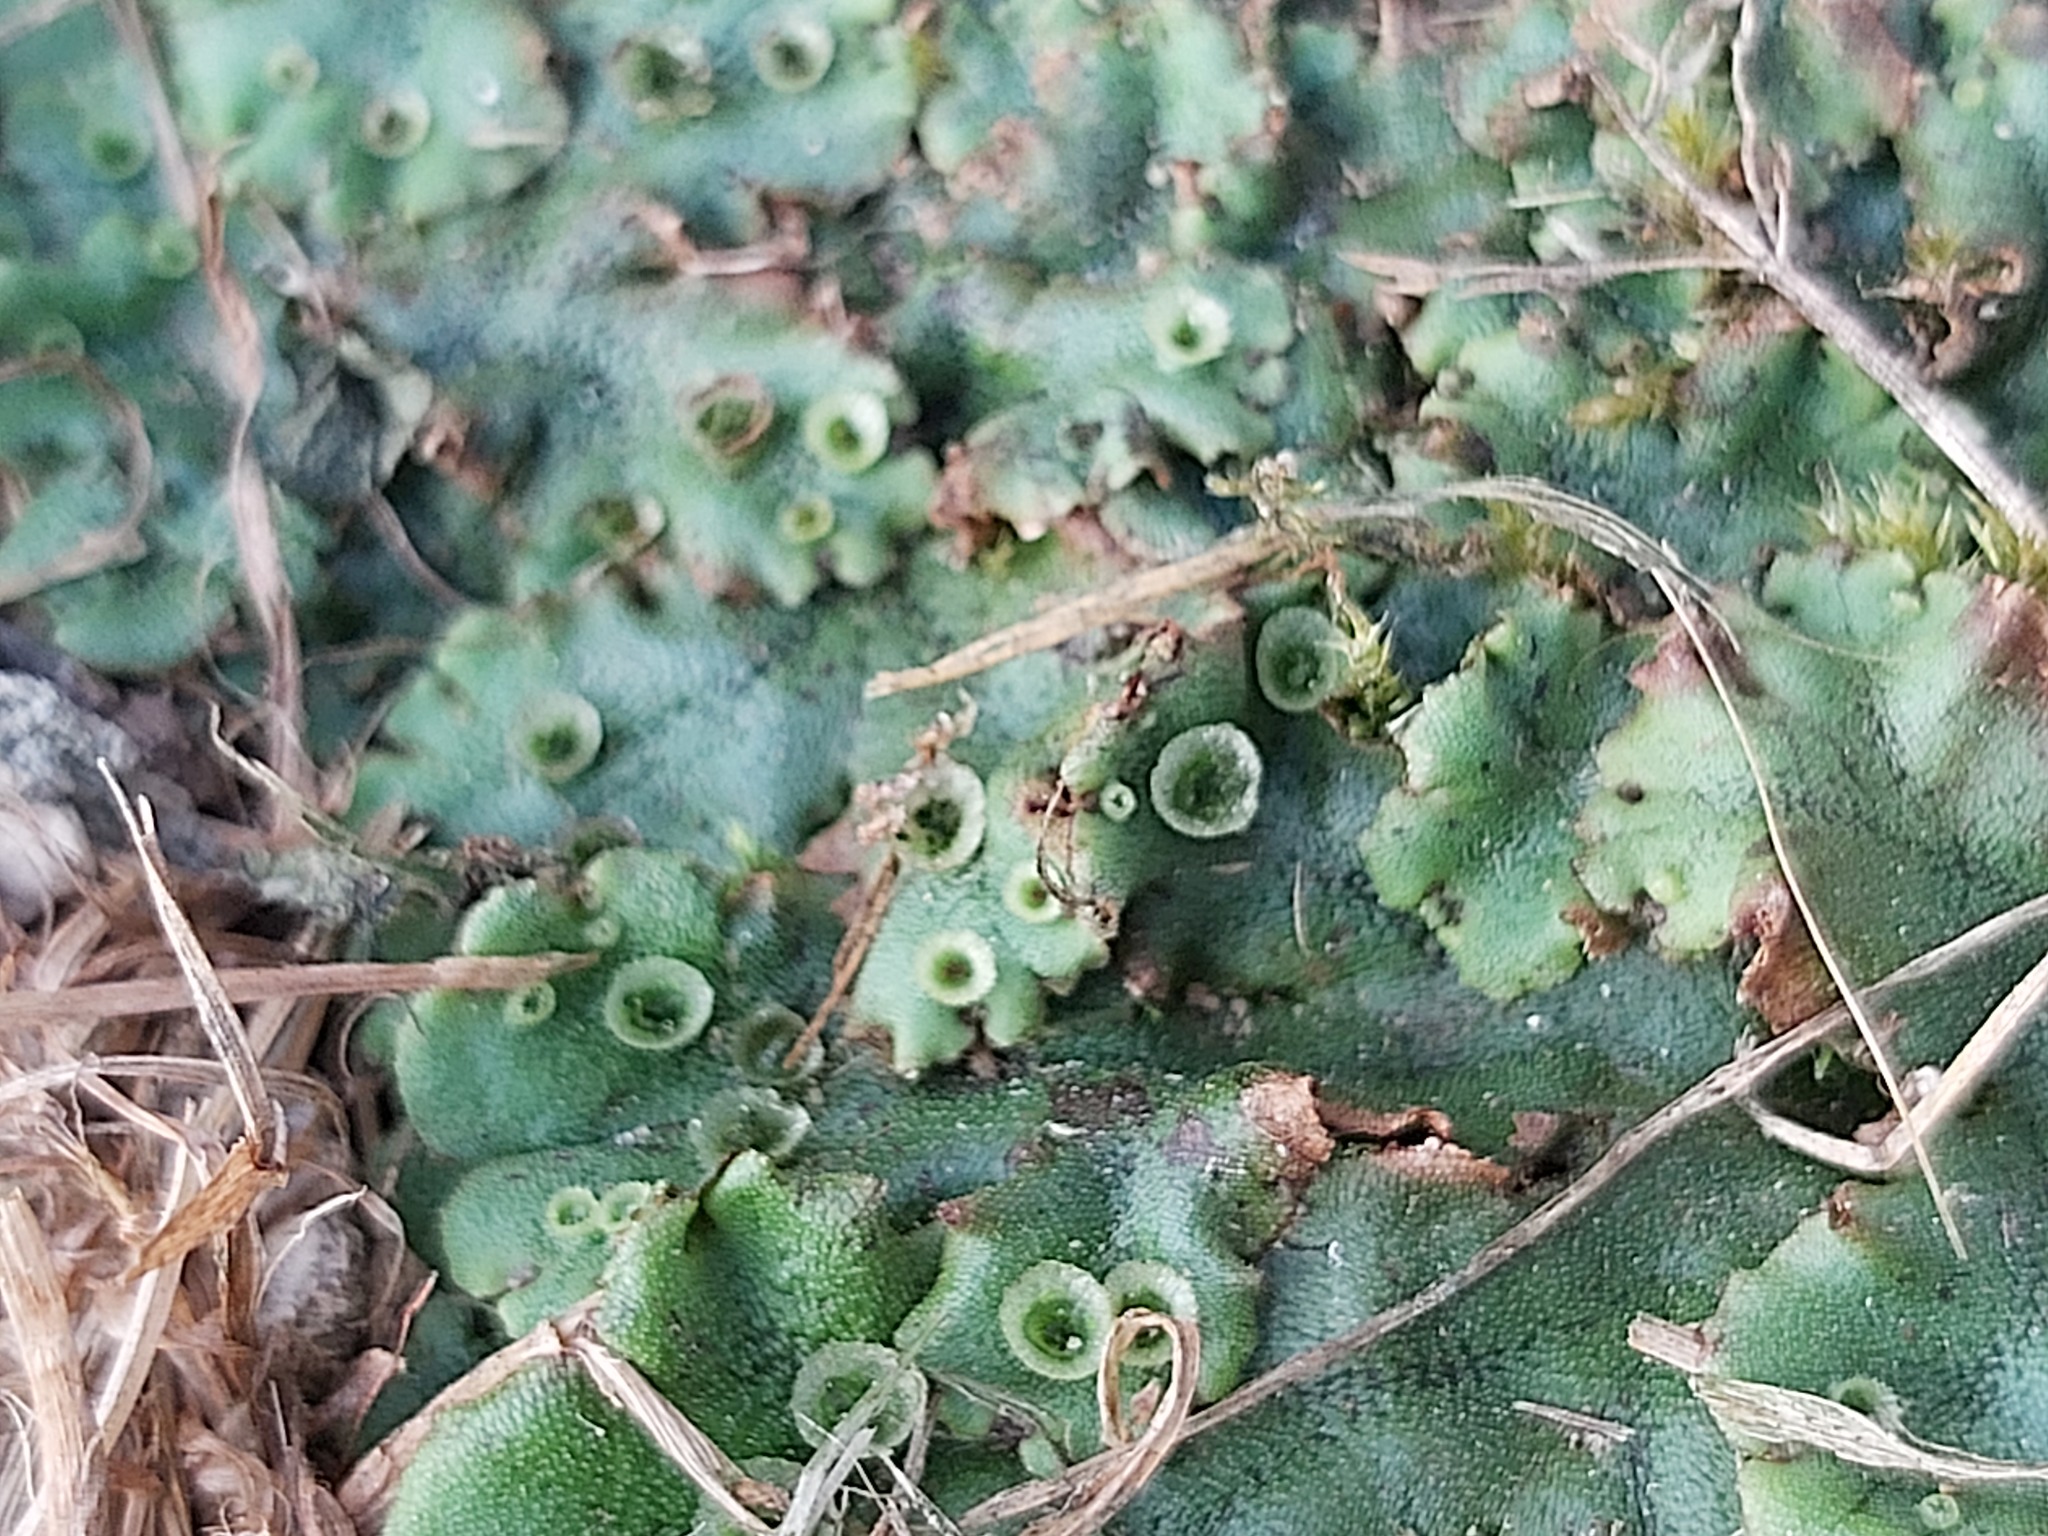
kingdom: Plantae
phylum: Marchantiophyta
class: Marchantiopsida
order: Marchantiales
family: Marchantiaceae
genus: Marchantia
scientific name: Marchantia polymorpha
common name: Common liverwort
